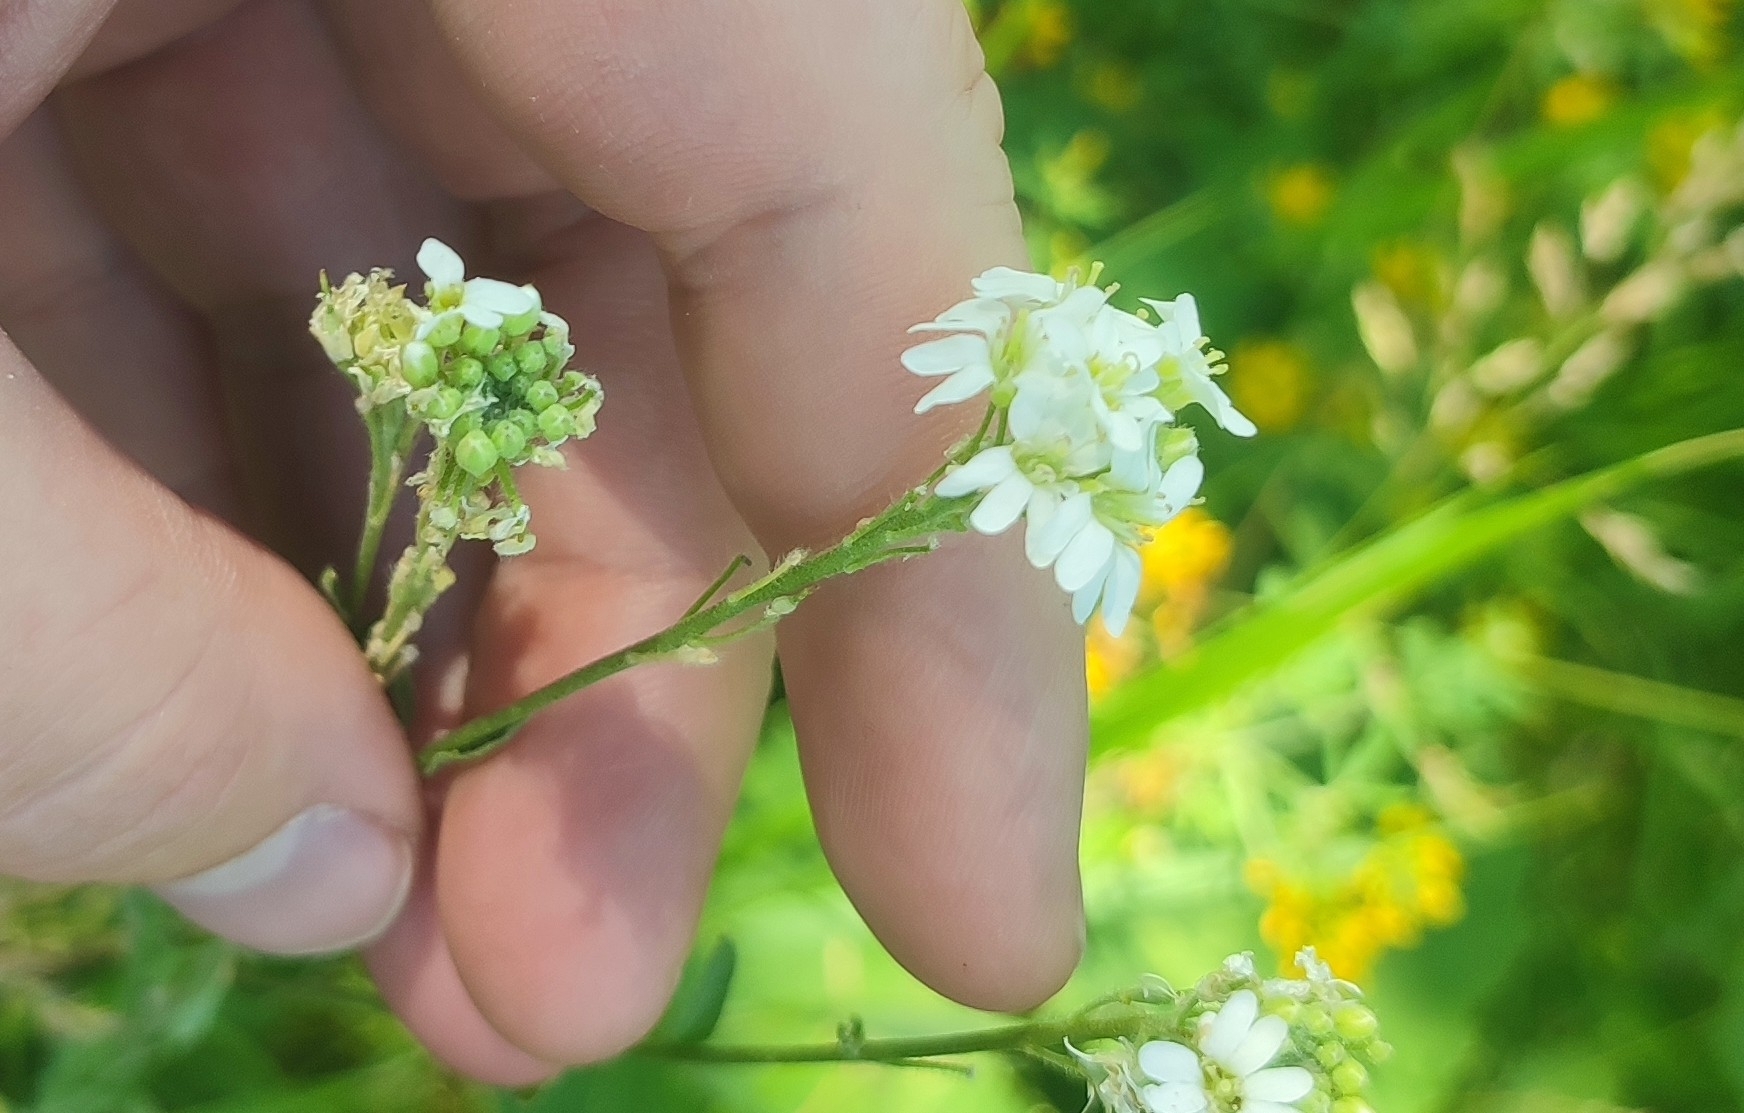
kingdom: Plantae
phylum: Tracheophyta
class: Magnoliopsida
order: Brassicales
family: Brassicaceae
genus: Berteroa
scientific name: Berteroa incana
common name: Hoary alison
